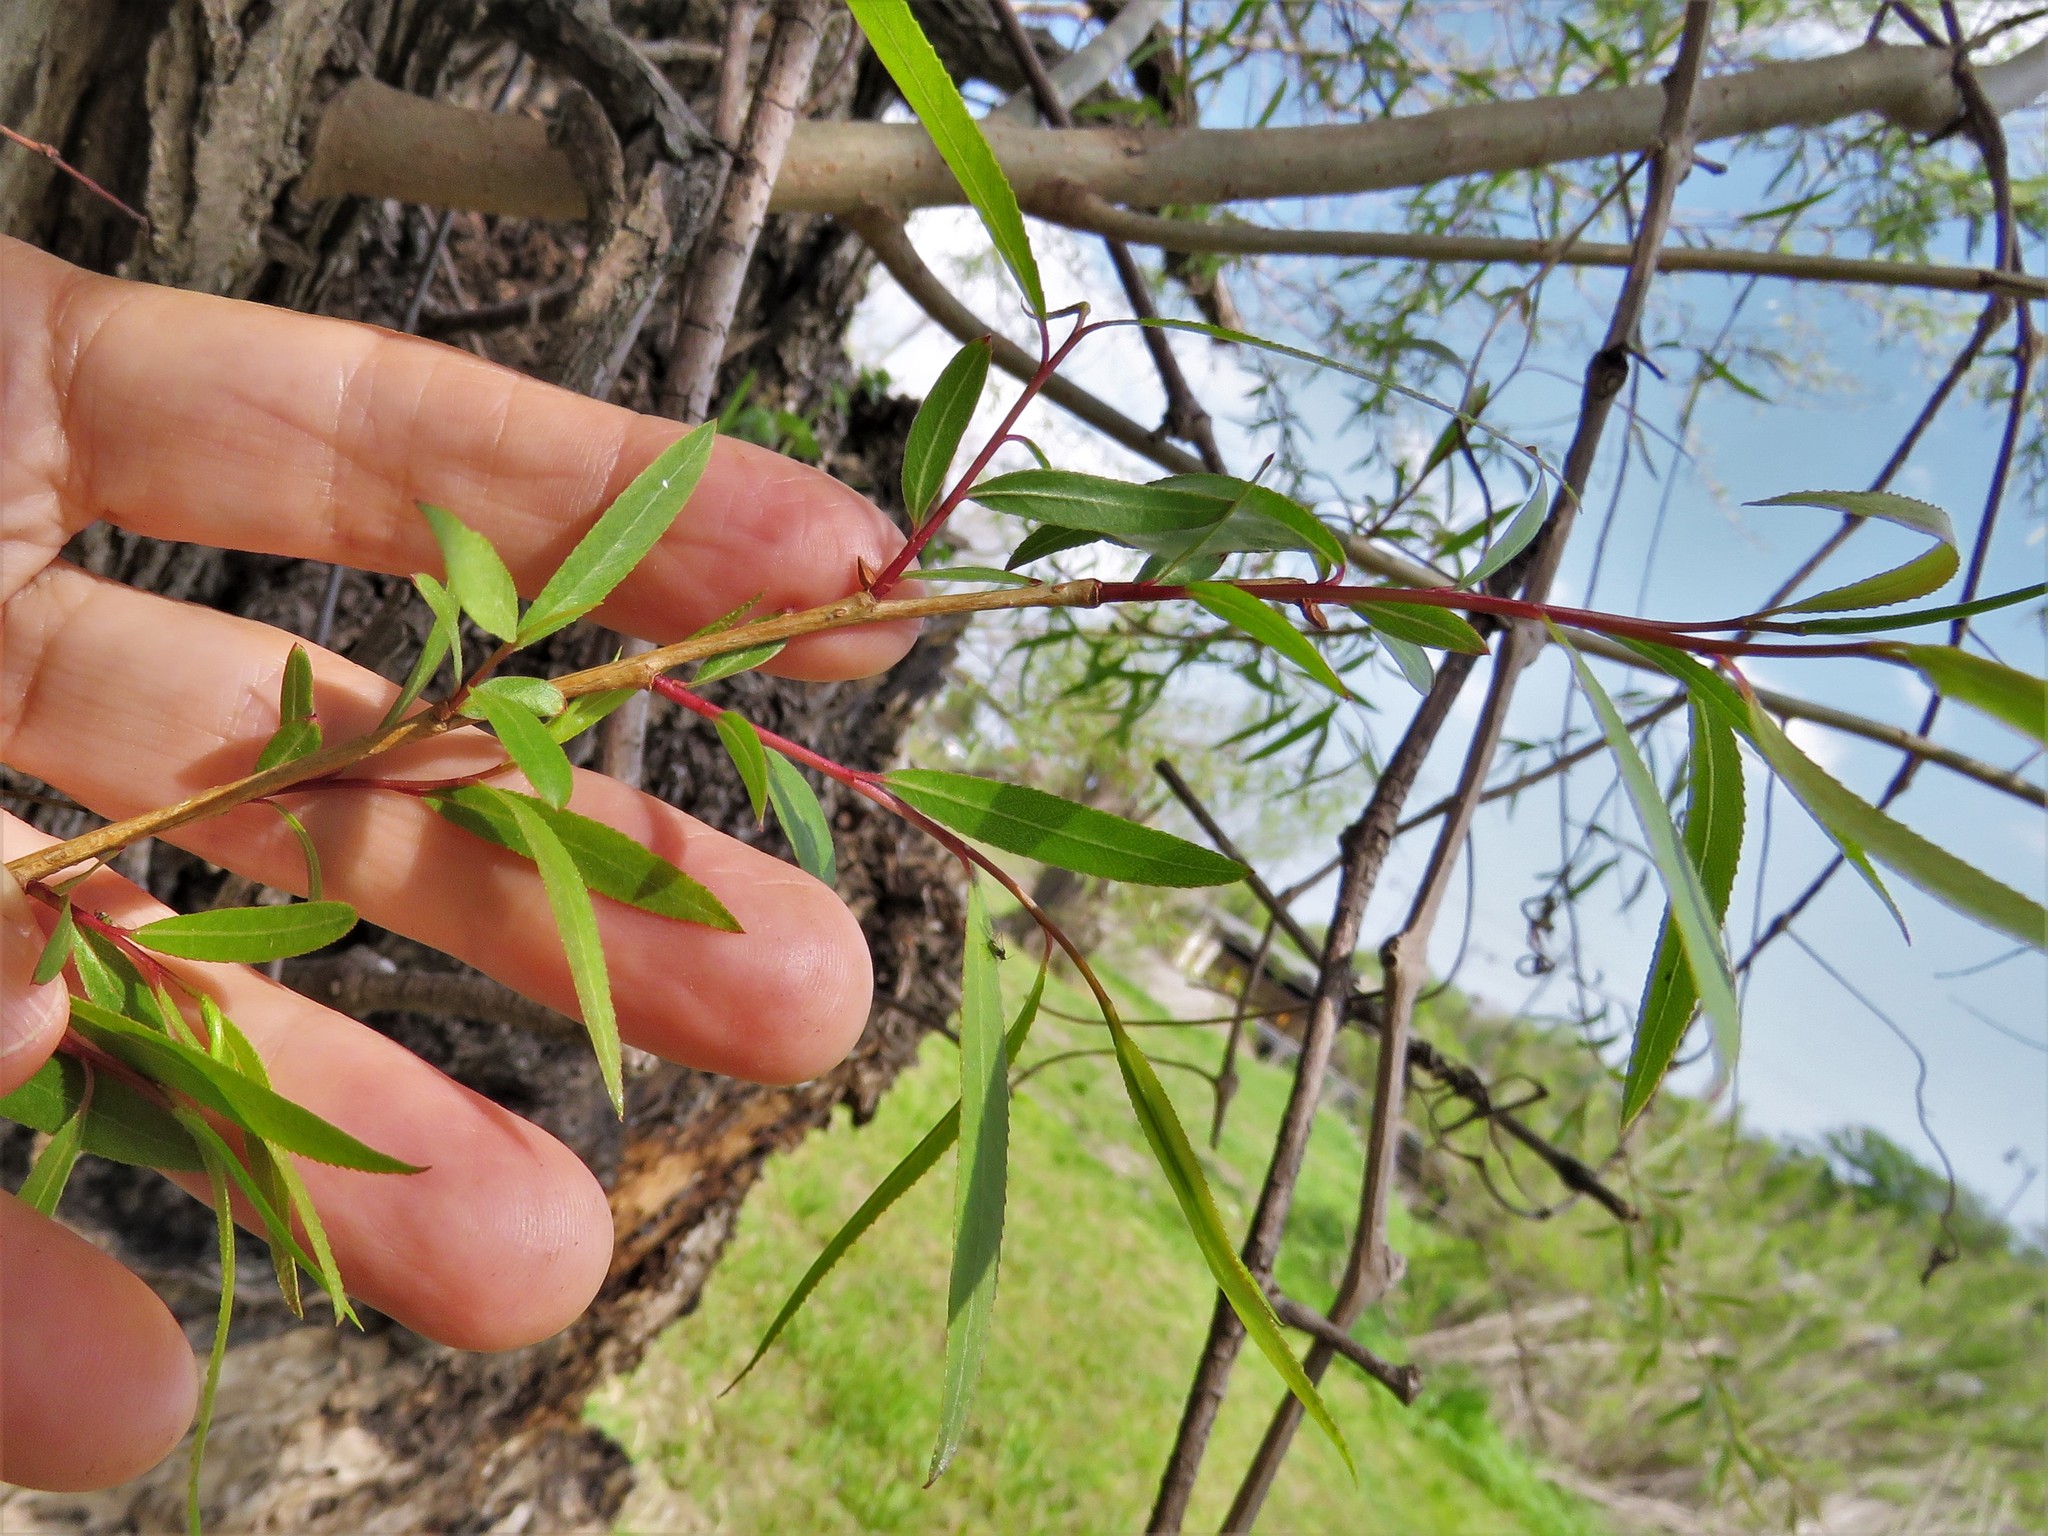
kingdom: Plantae
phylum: Tracheophyta
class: Magnoliopsida
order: Malpighiales
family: Salicaceae
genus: Salix
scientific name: Salix nigra
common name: Black willow
